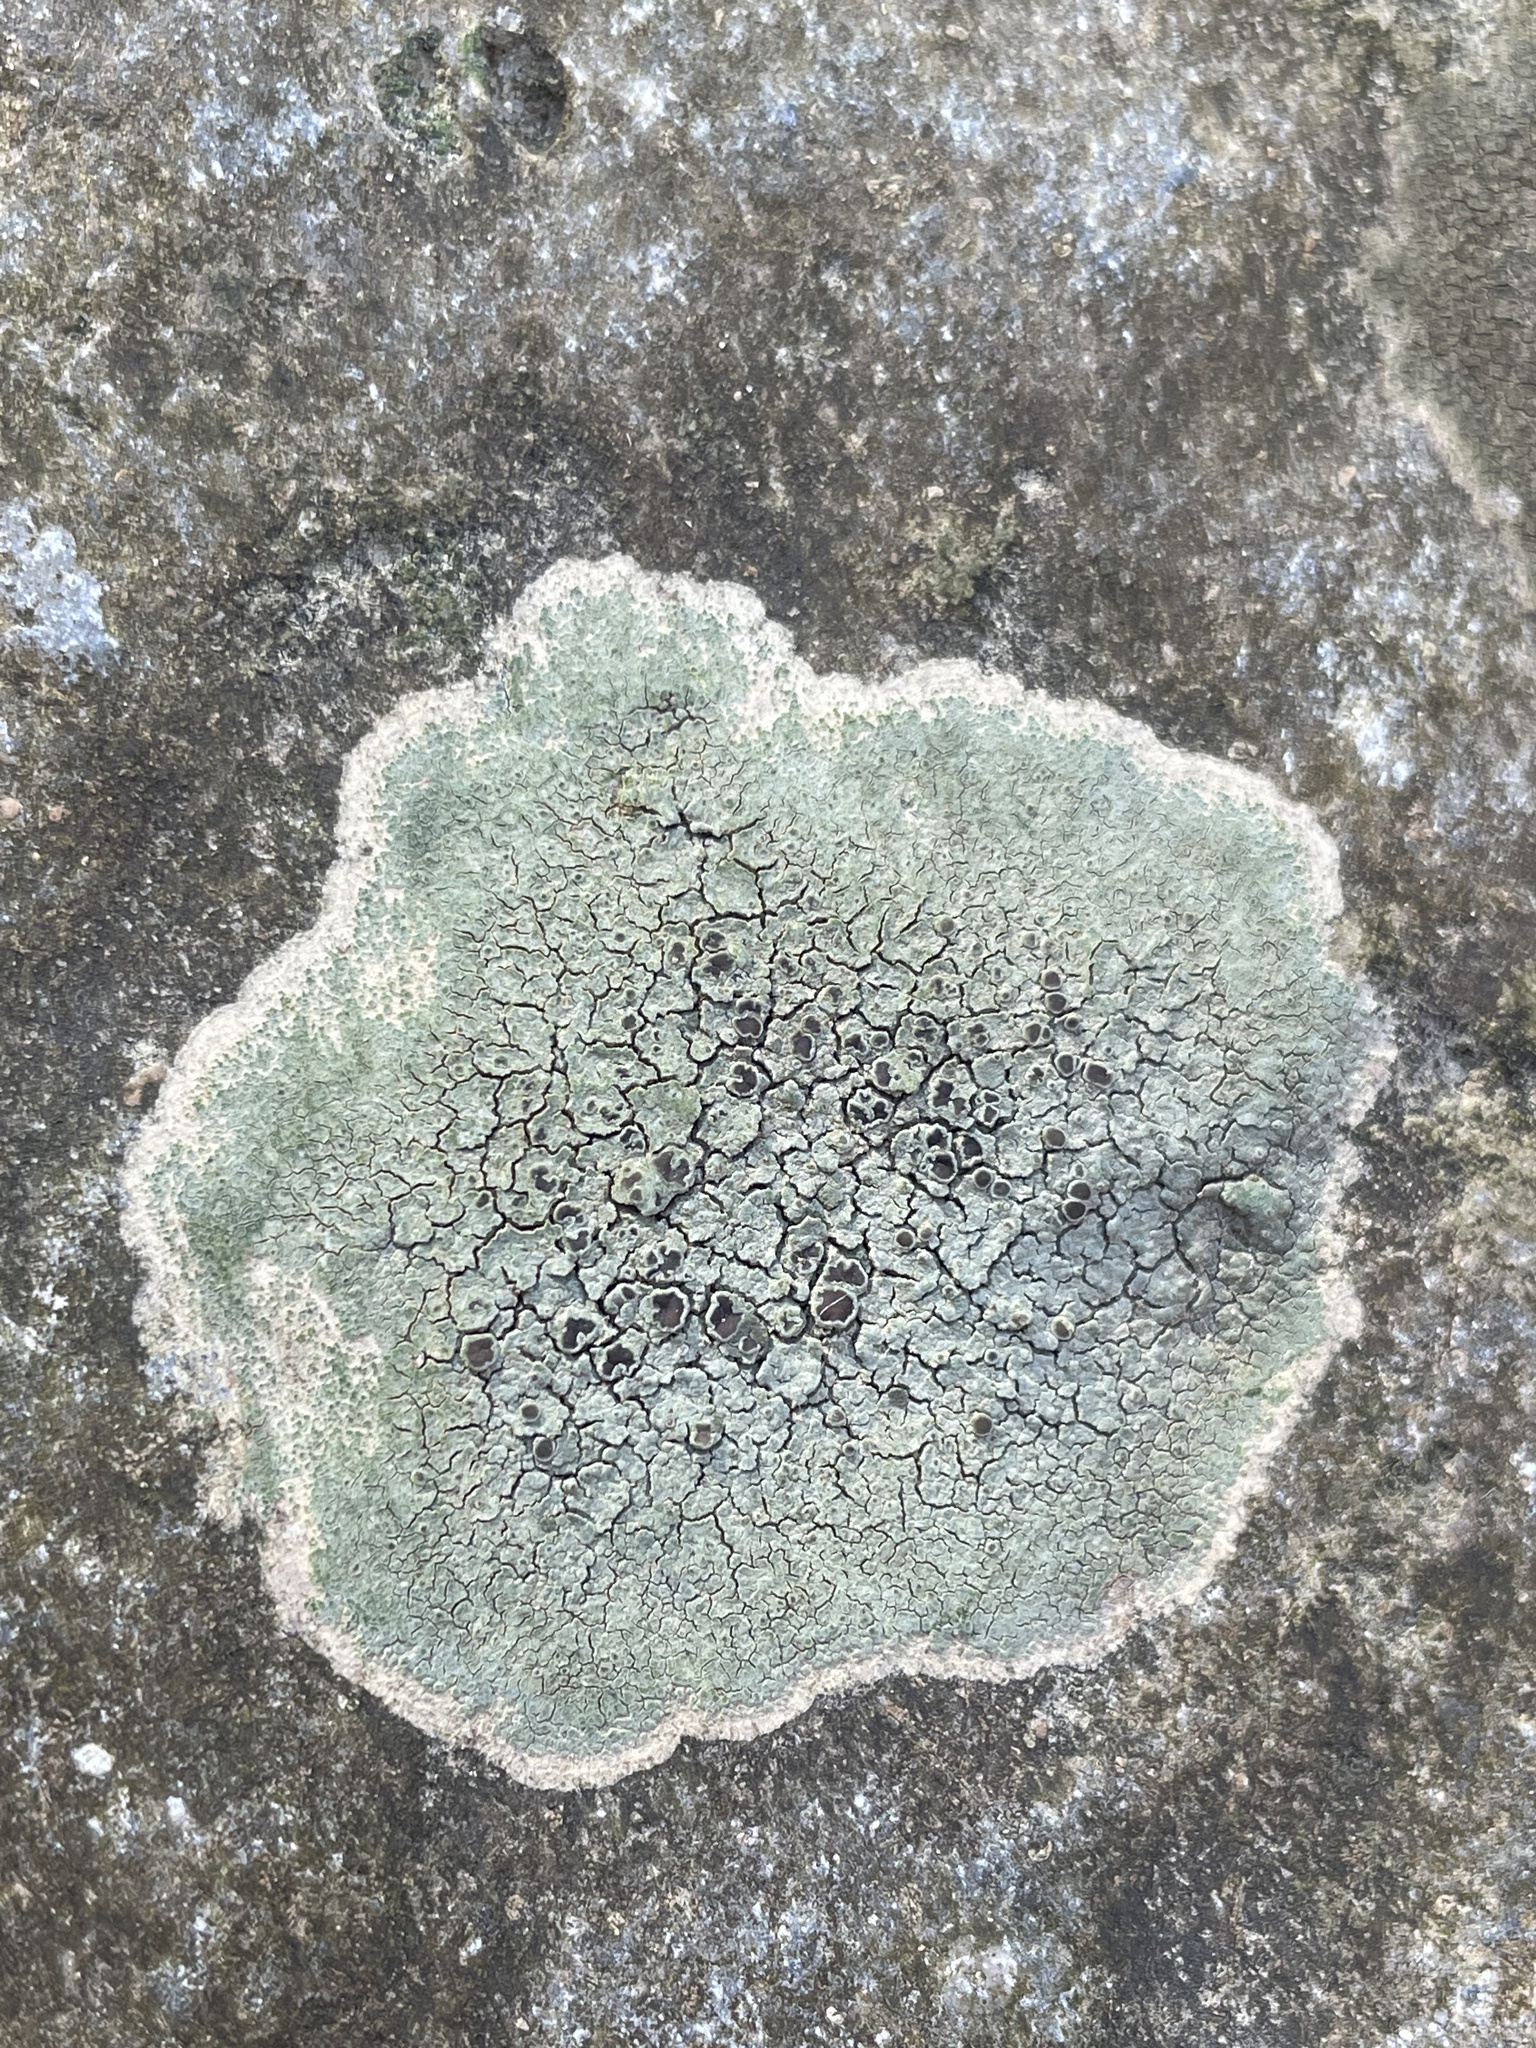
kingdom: Fungi
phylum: Ascomycota
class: Lecanoromycetes
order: Teloschistales
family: Teloschistaceae
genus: Pyrenodesmia
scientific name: Pyrenodesmia atroalba
